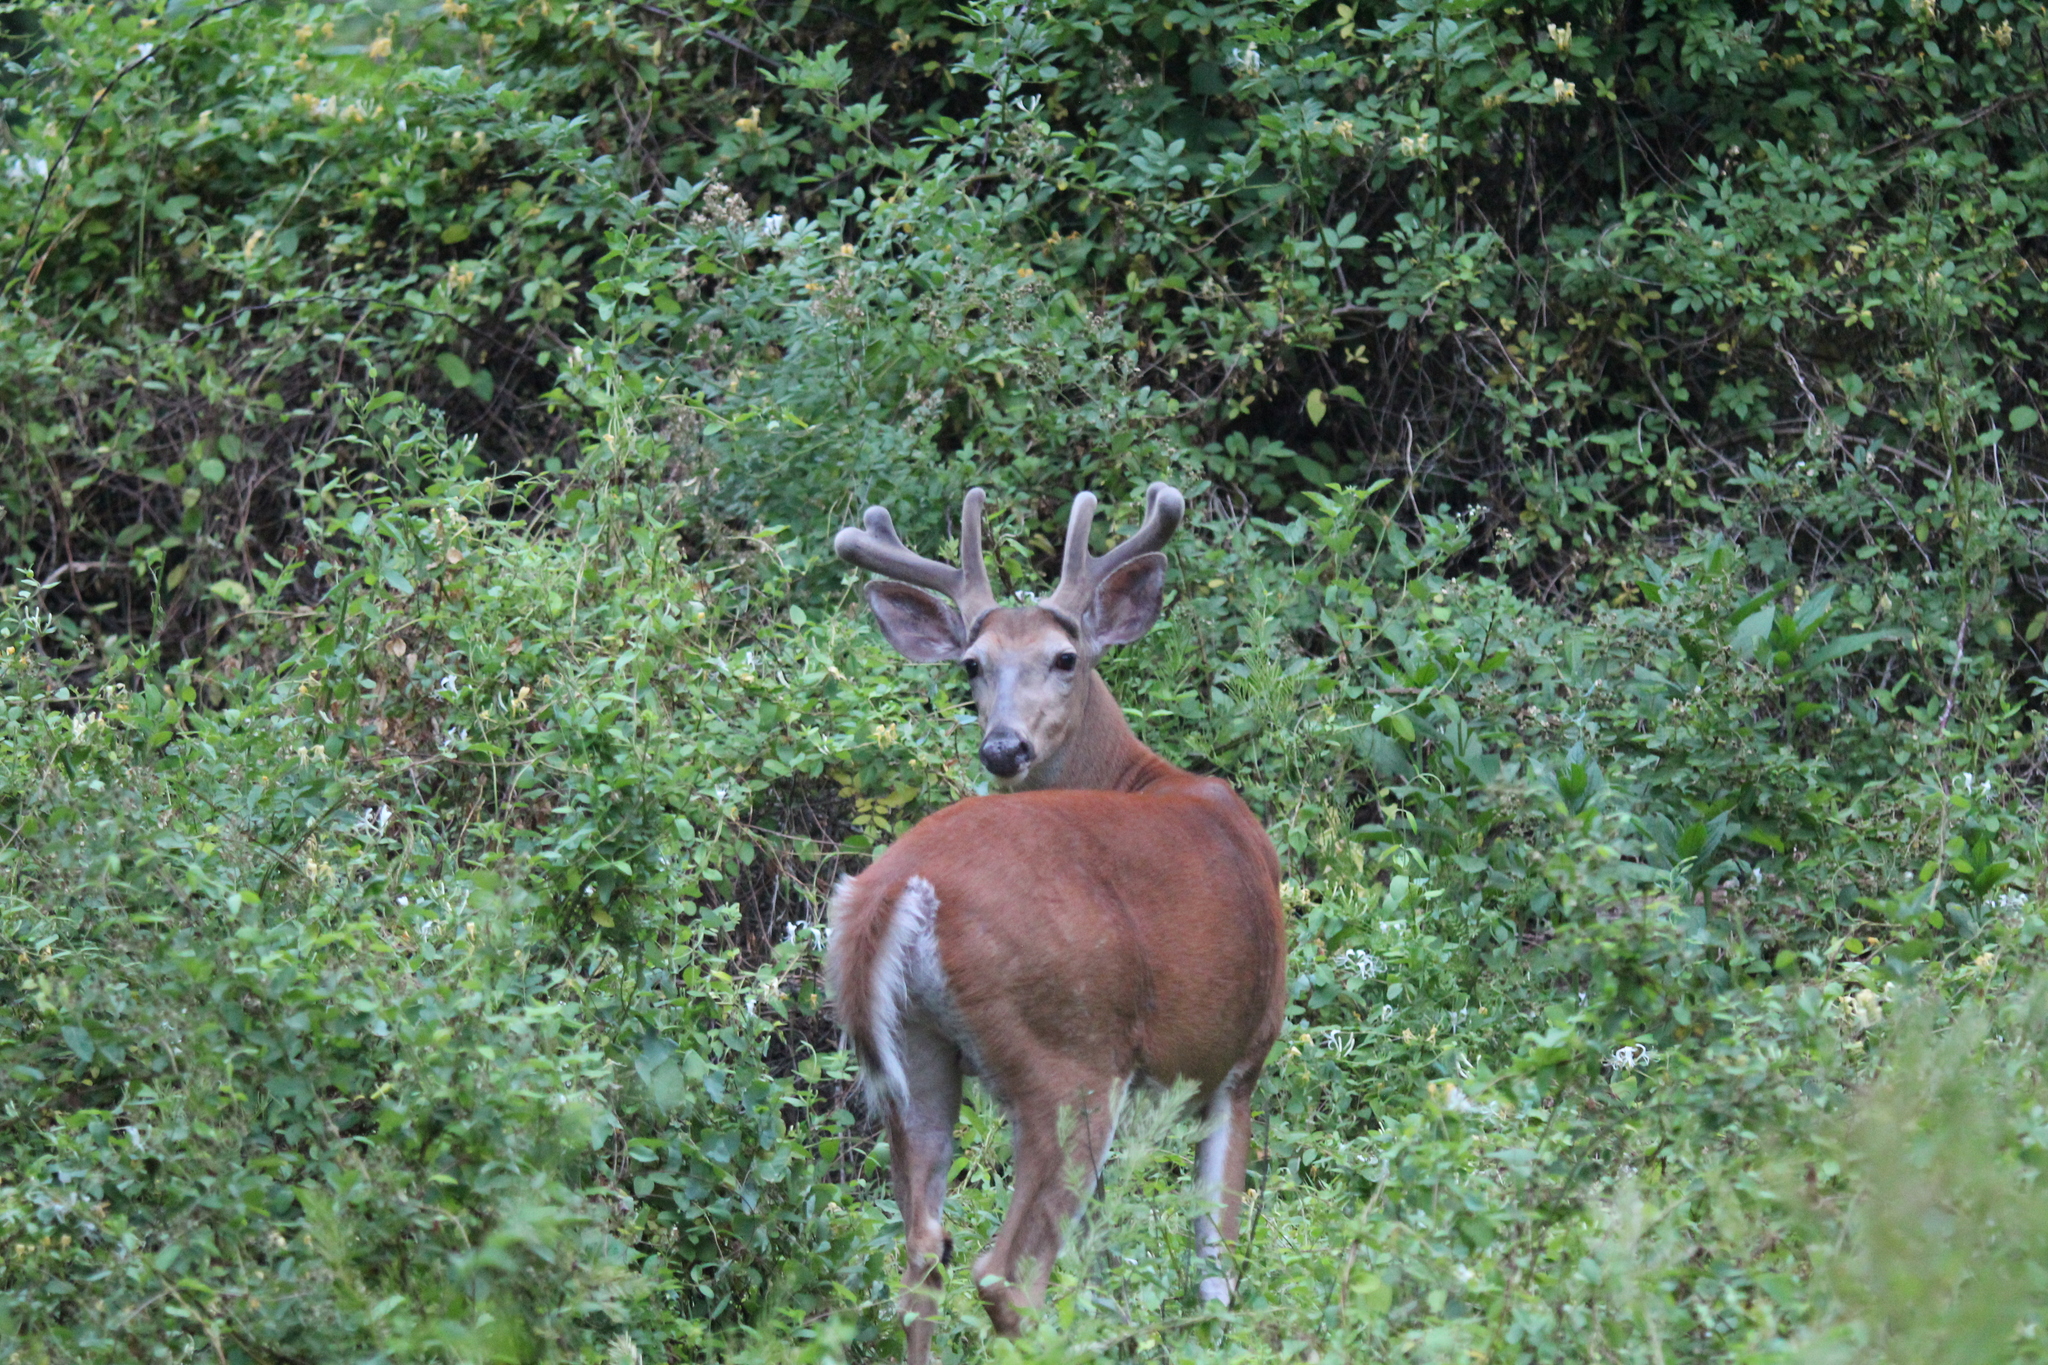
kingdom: Animalia
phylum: Chordata
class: Mammalia
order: Artiodactyla
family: Cervidae
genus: Odocoileus
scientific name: Odocoileus virginianus
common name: White-tailed deer
